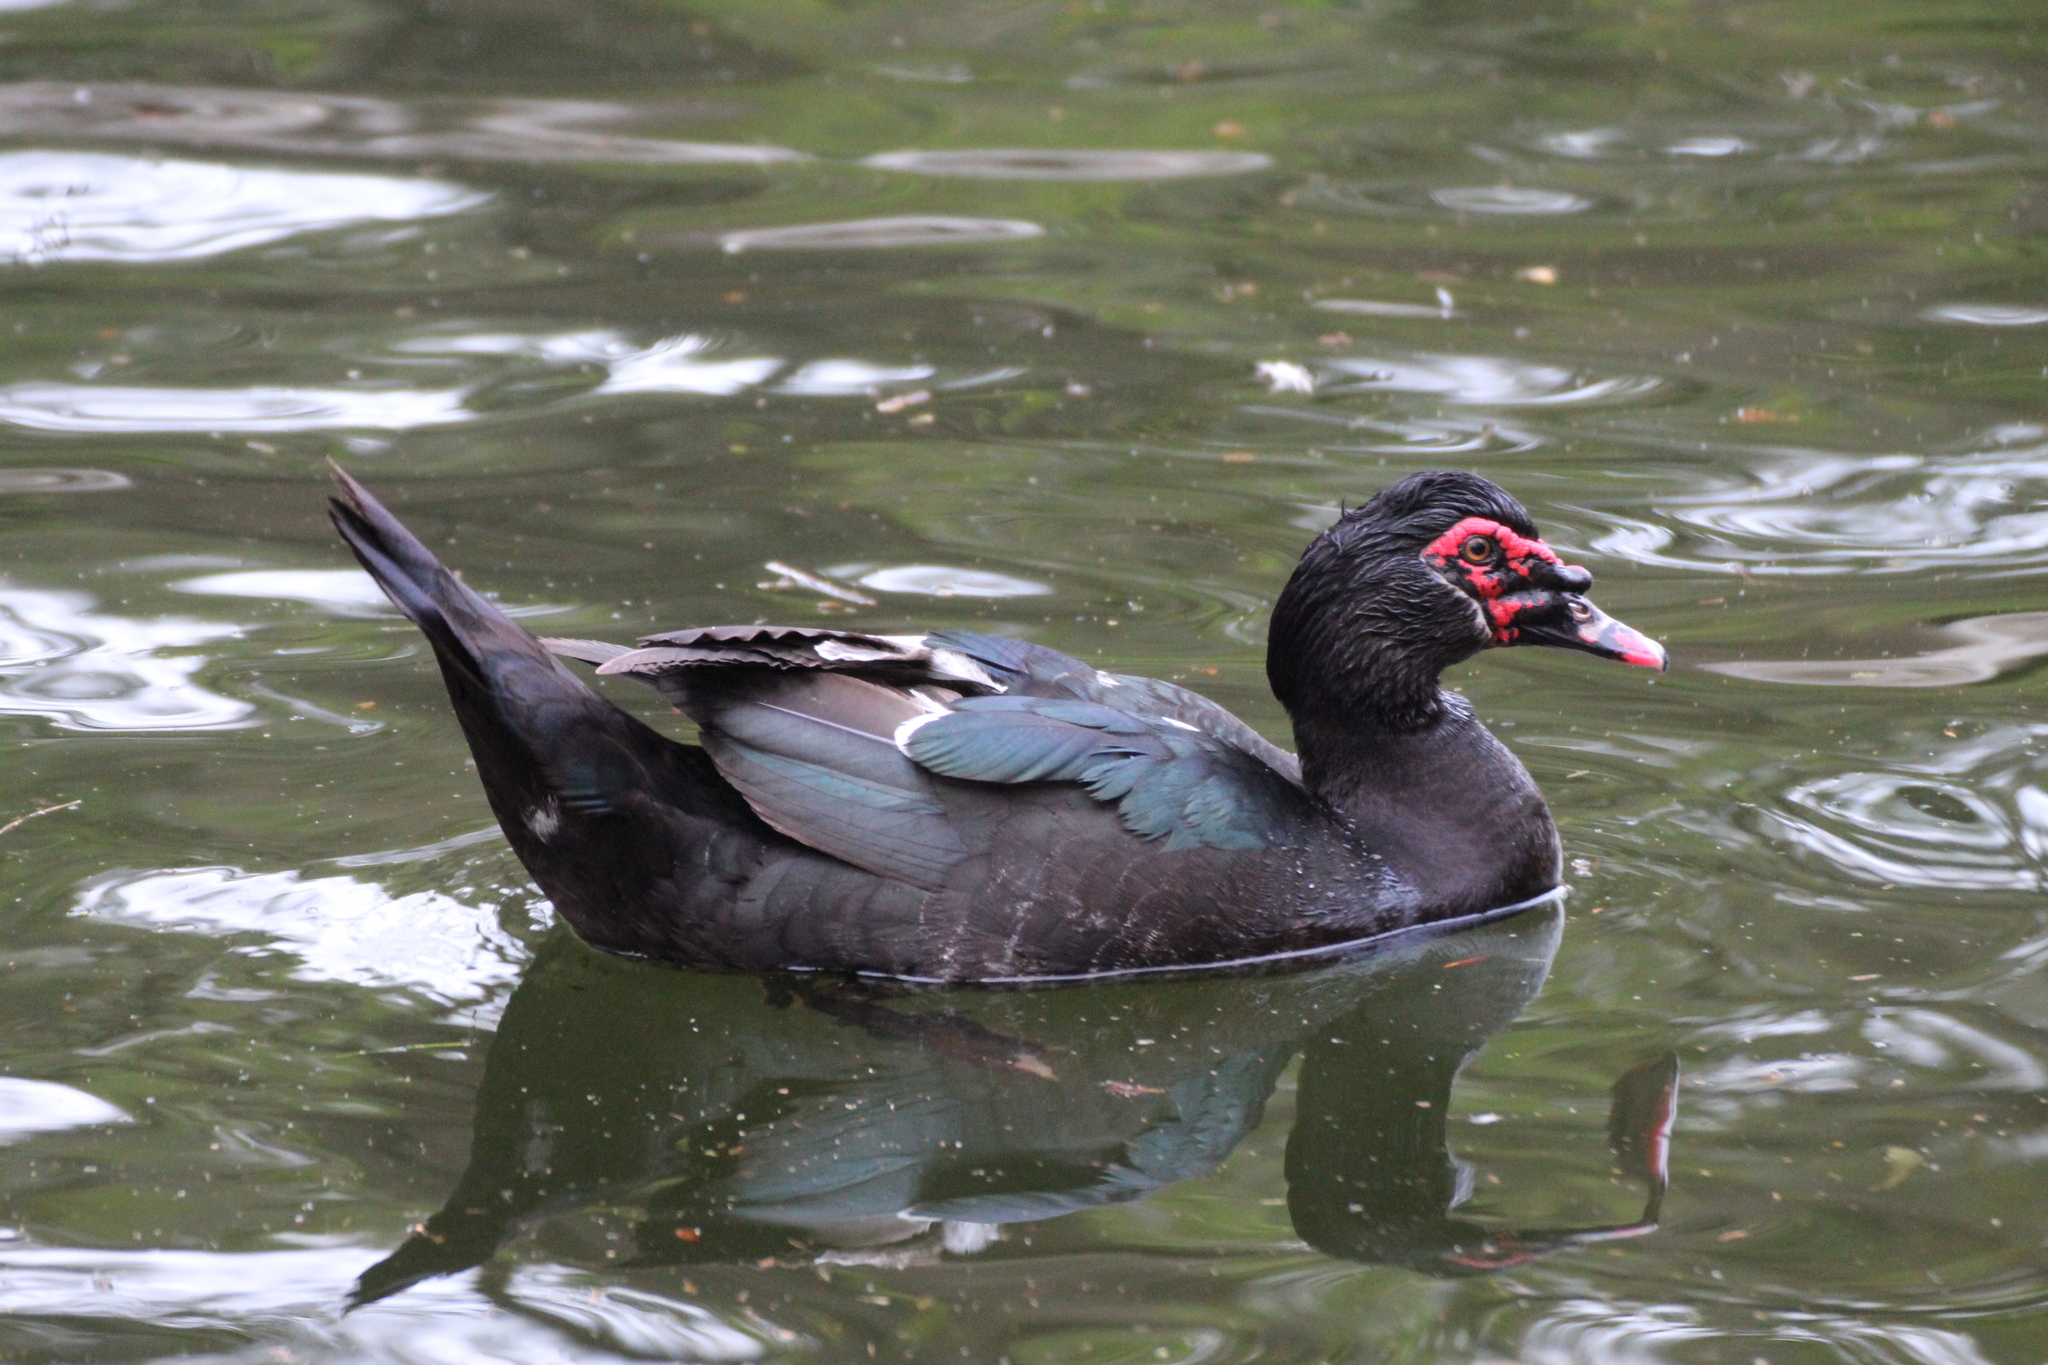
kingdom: Animalia
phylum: Chordata
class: Aves
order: Anseriformes
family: Anatidae
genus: Cairina
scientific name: Cairina moschata
